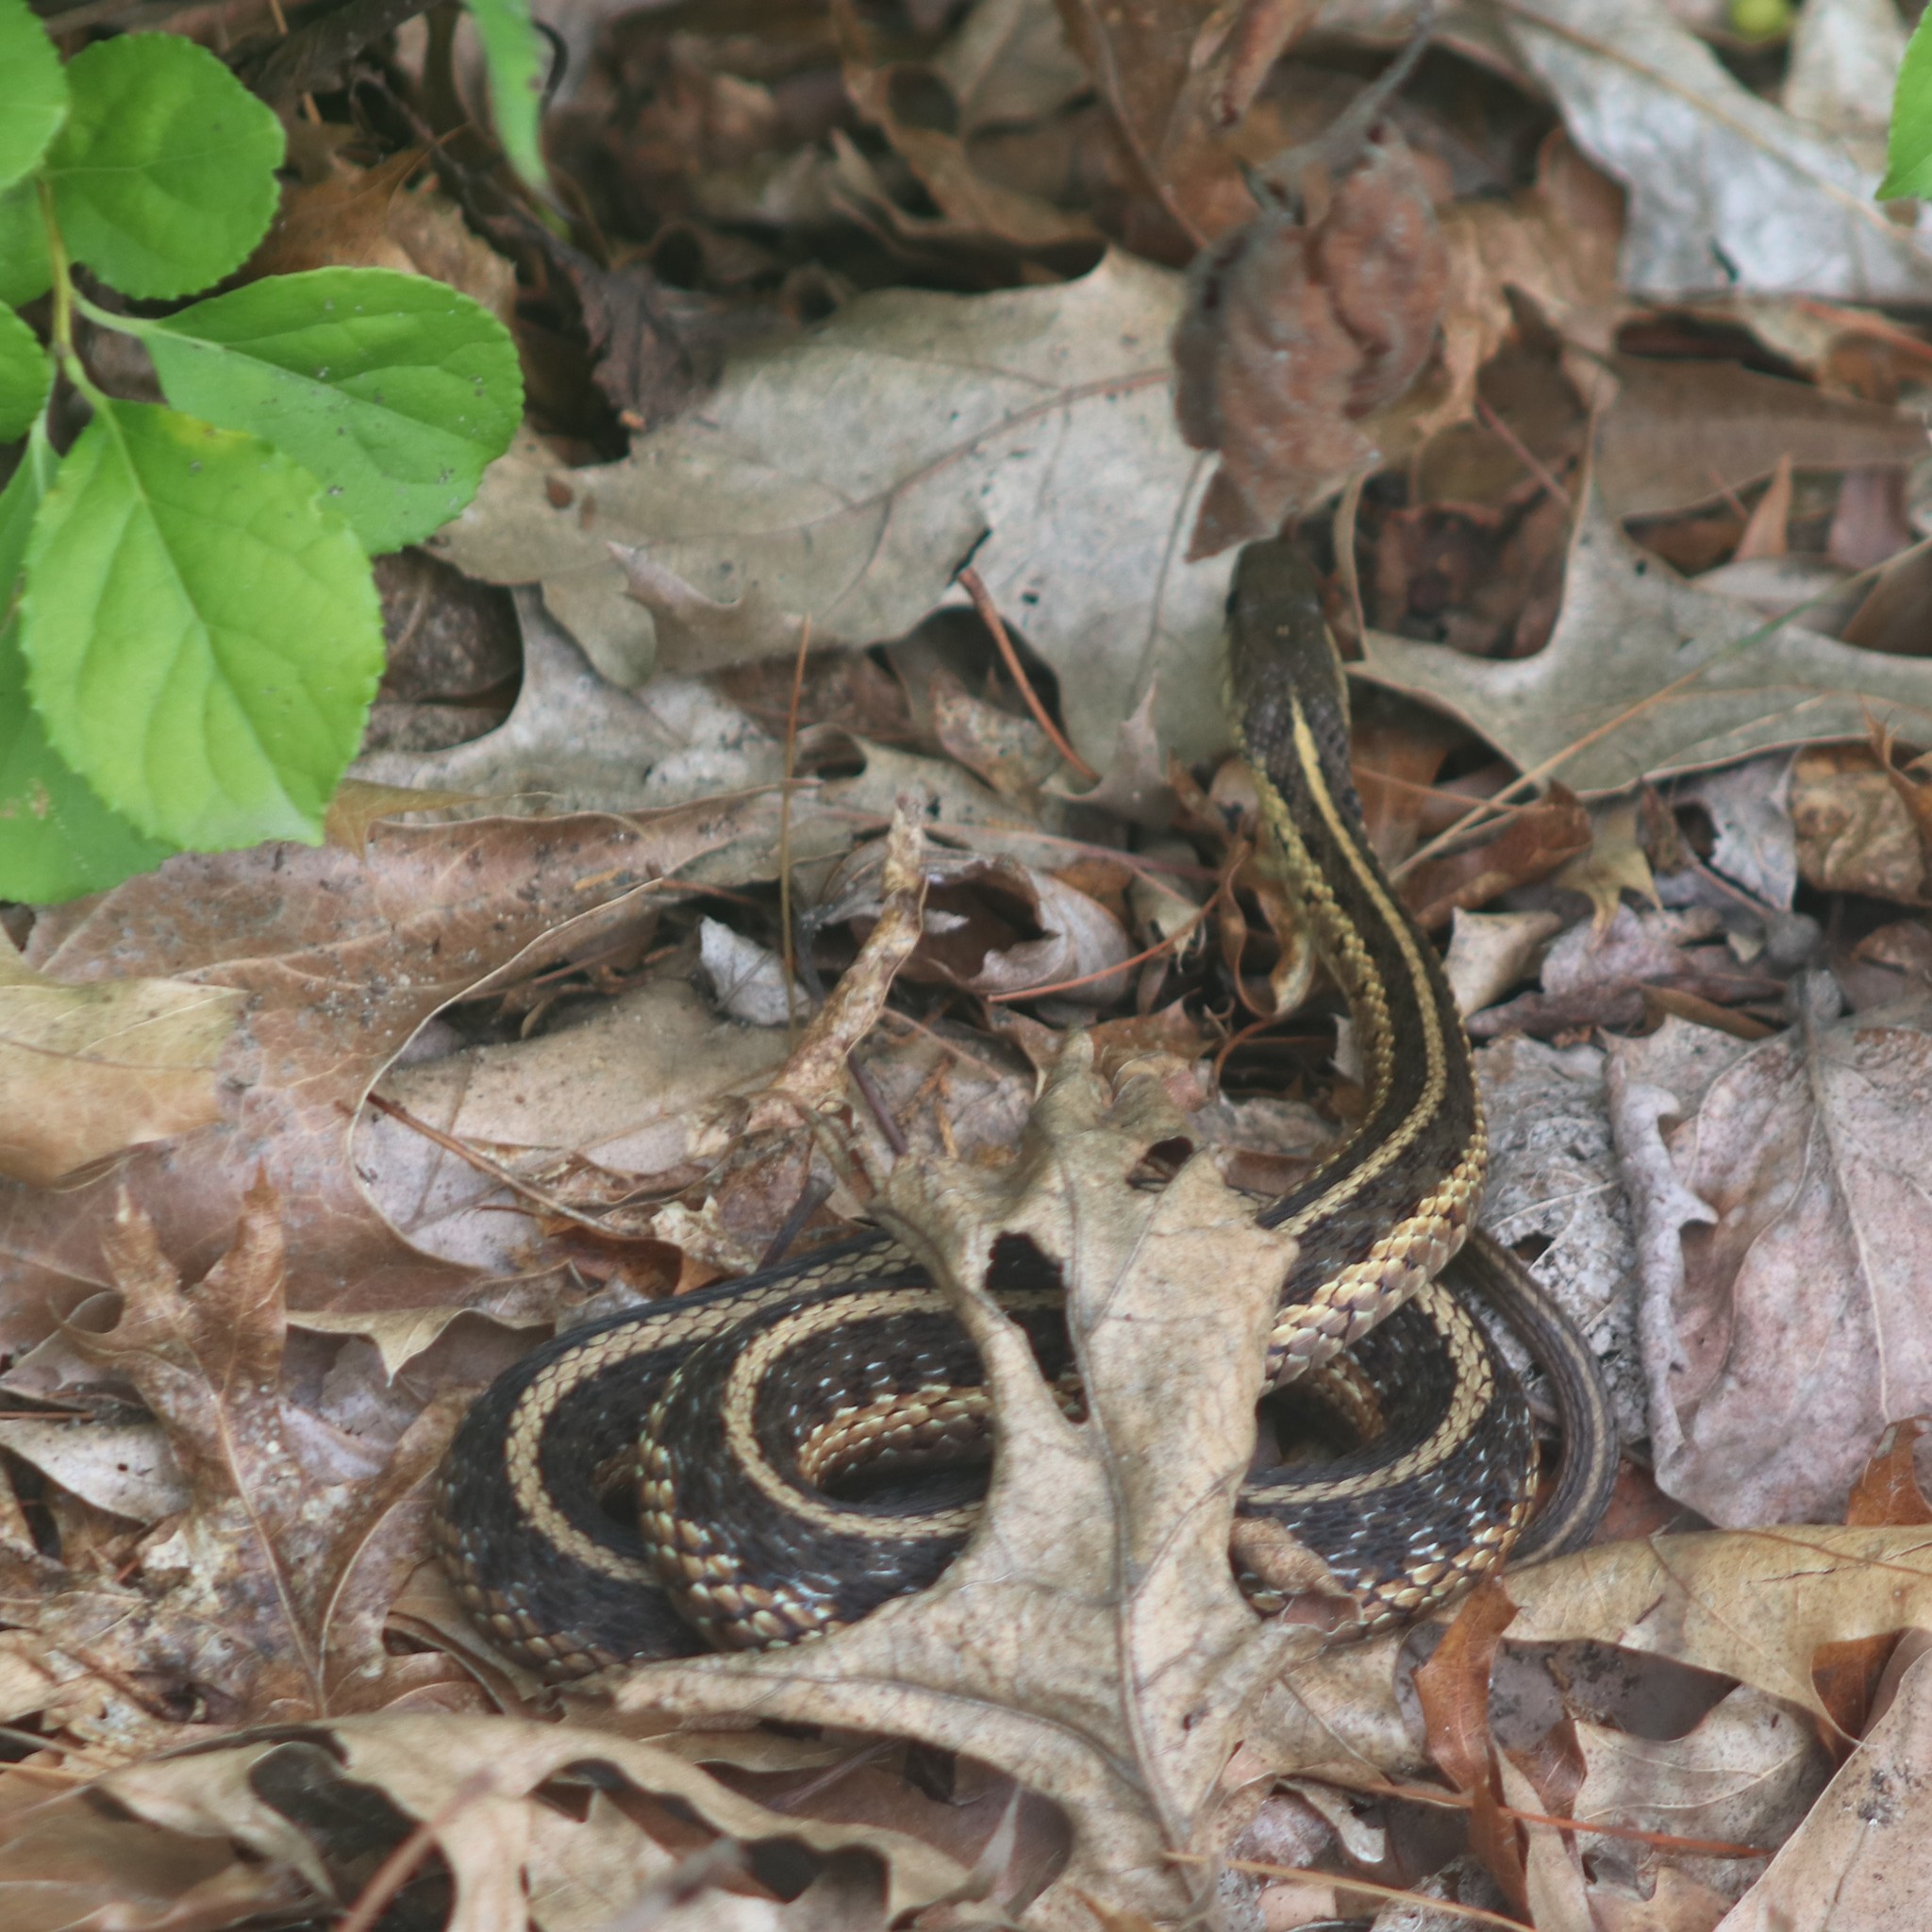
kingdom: Animalia
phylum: Chordata
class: Squamata
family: Colubridae
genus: Thamnophis
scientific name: Thamnophis sirtalis
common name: Common garter snake
